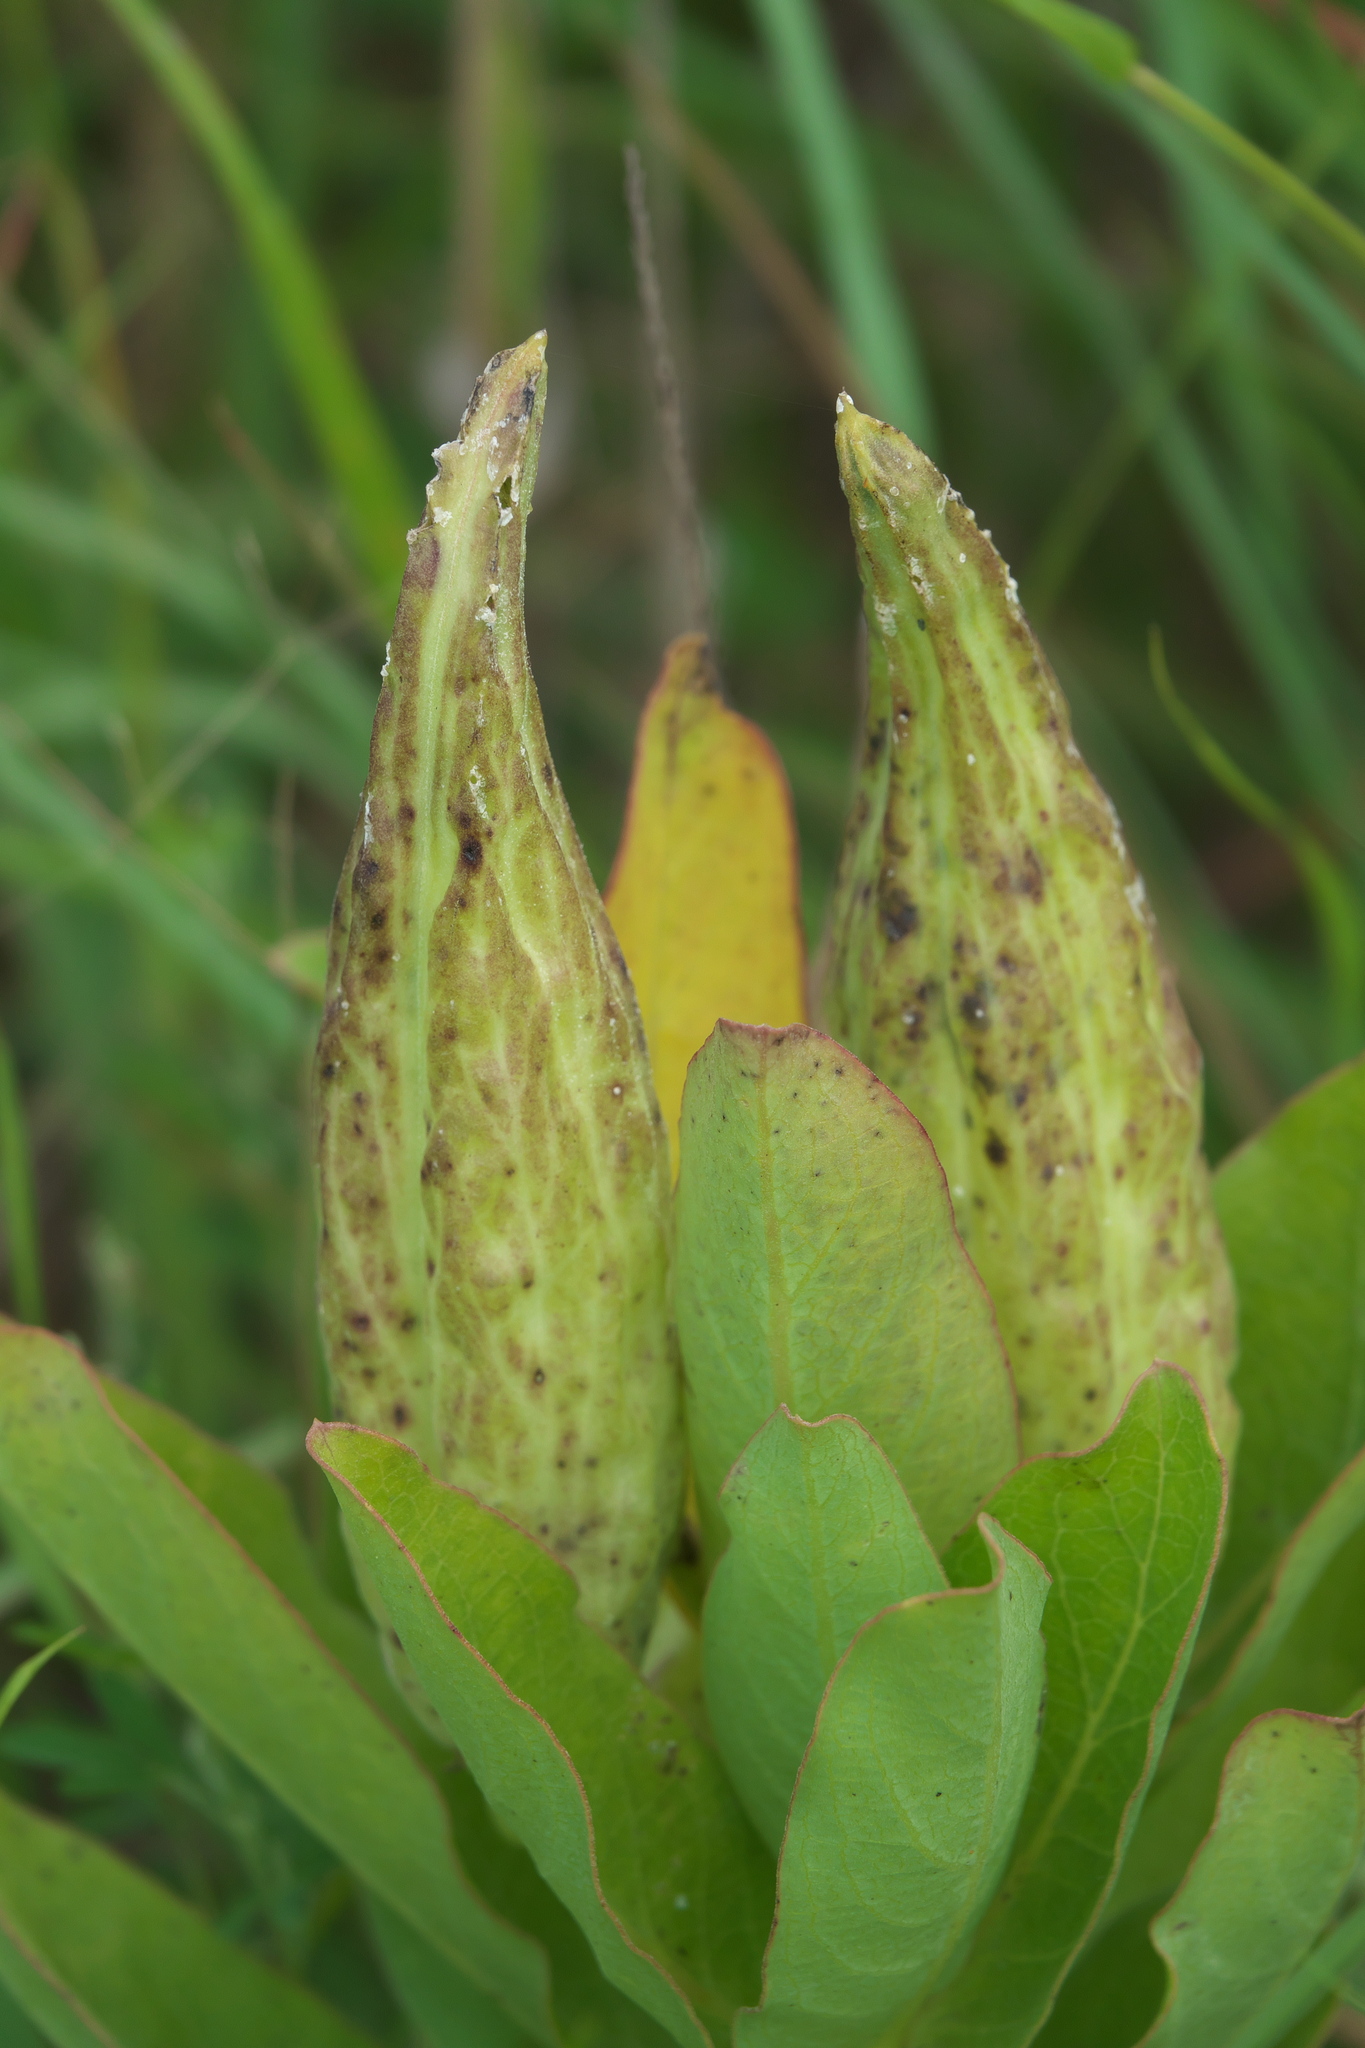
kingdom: Plantae
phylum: Tracheophyta
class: Magnoliopsida
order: Gentianales
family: Apocynaceae
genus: Asclepias
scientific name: Asclepias viridis
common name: Antelope-horns
